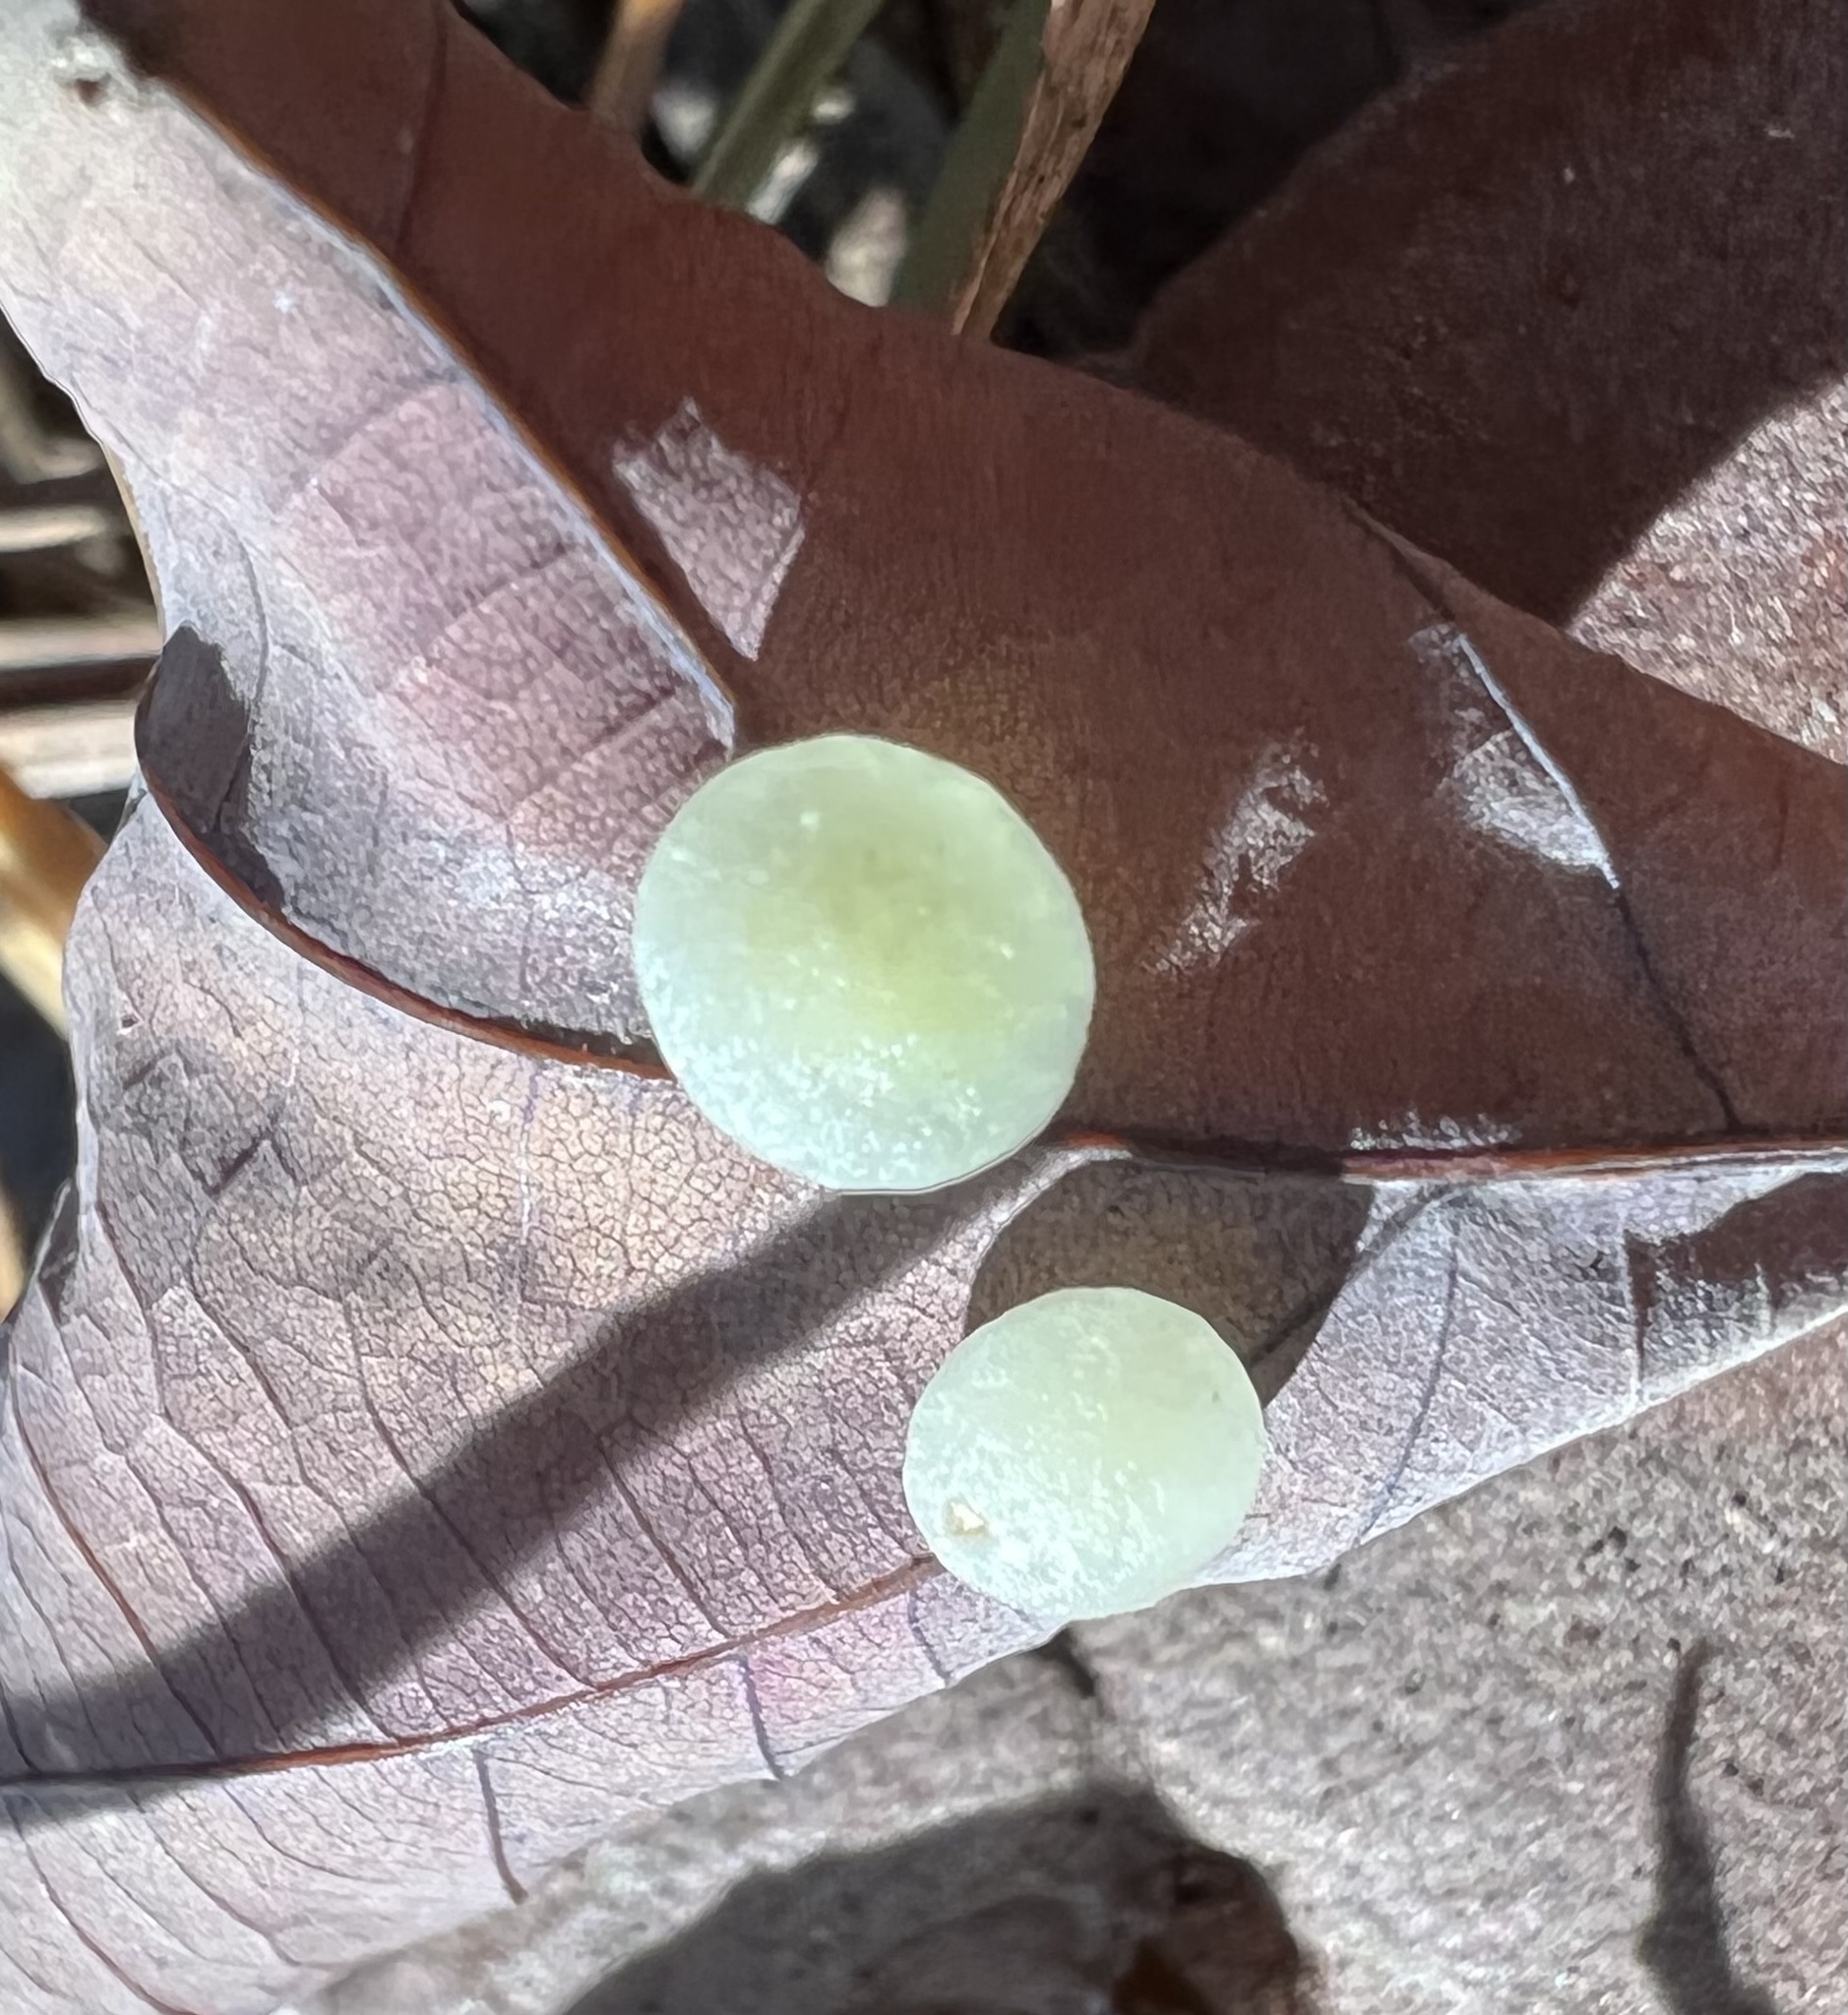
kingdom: Animalia
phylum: Arthropoda
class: Insecta
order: Hymenoptera
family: Cynipidae
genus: Phylloteras
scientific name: Phylloteras
